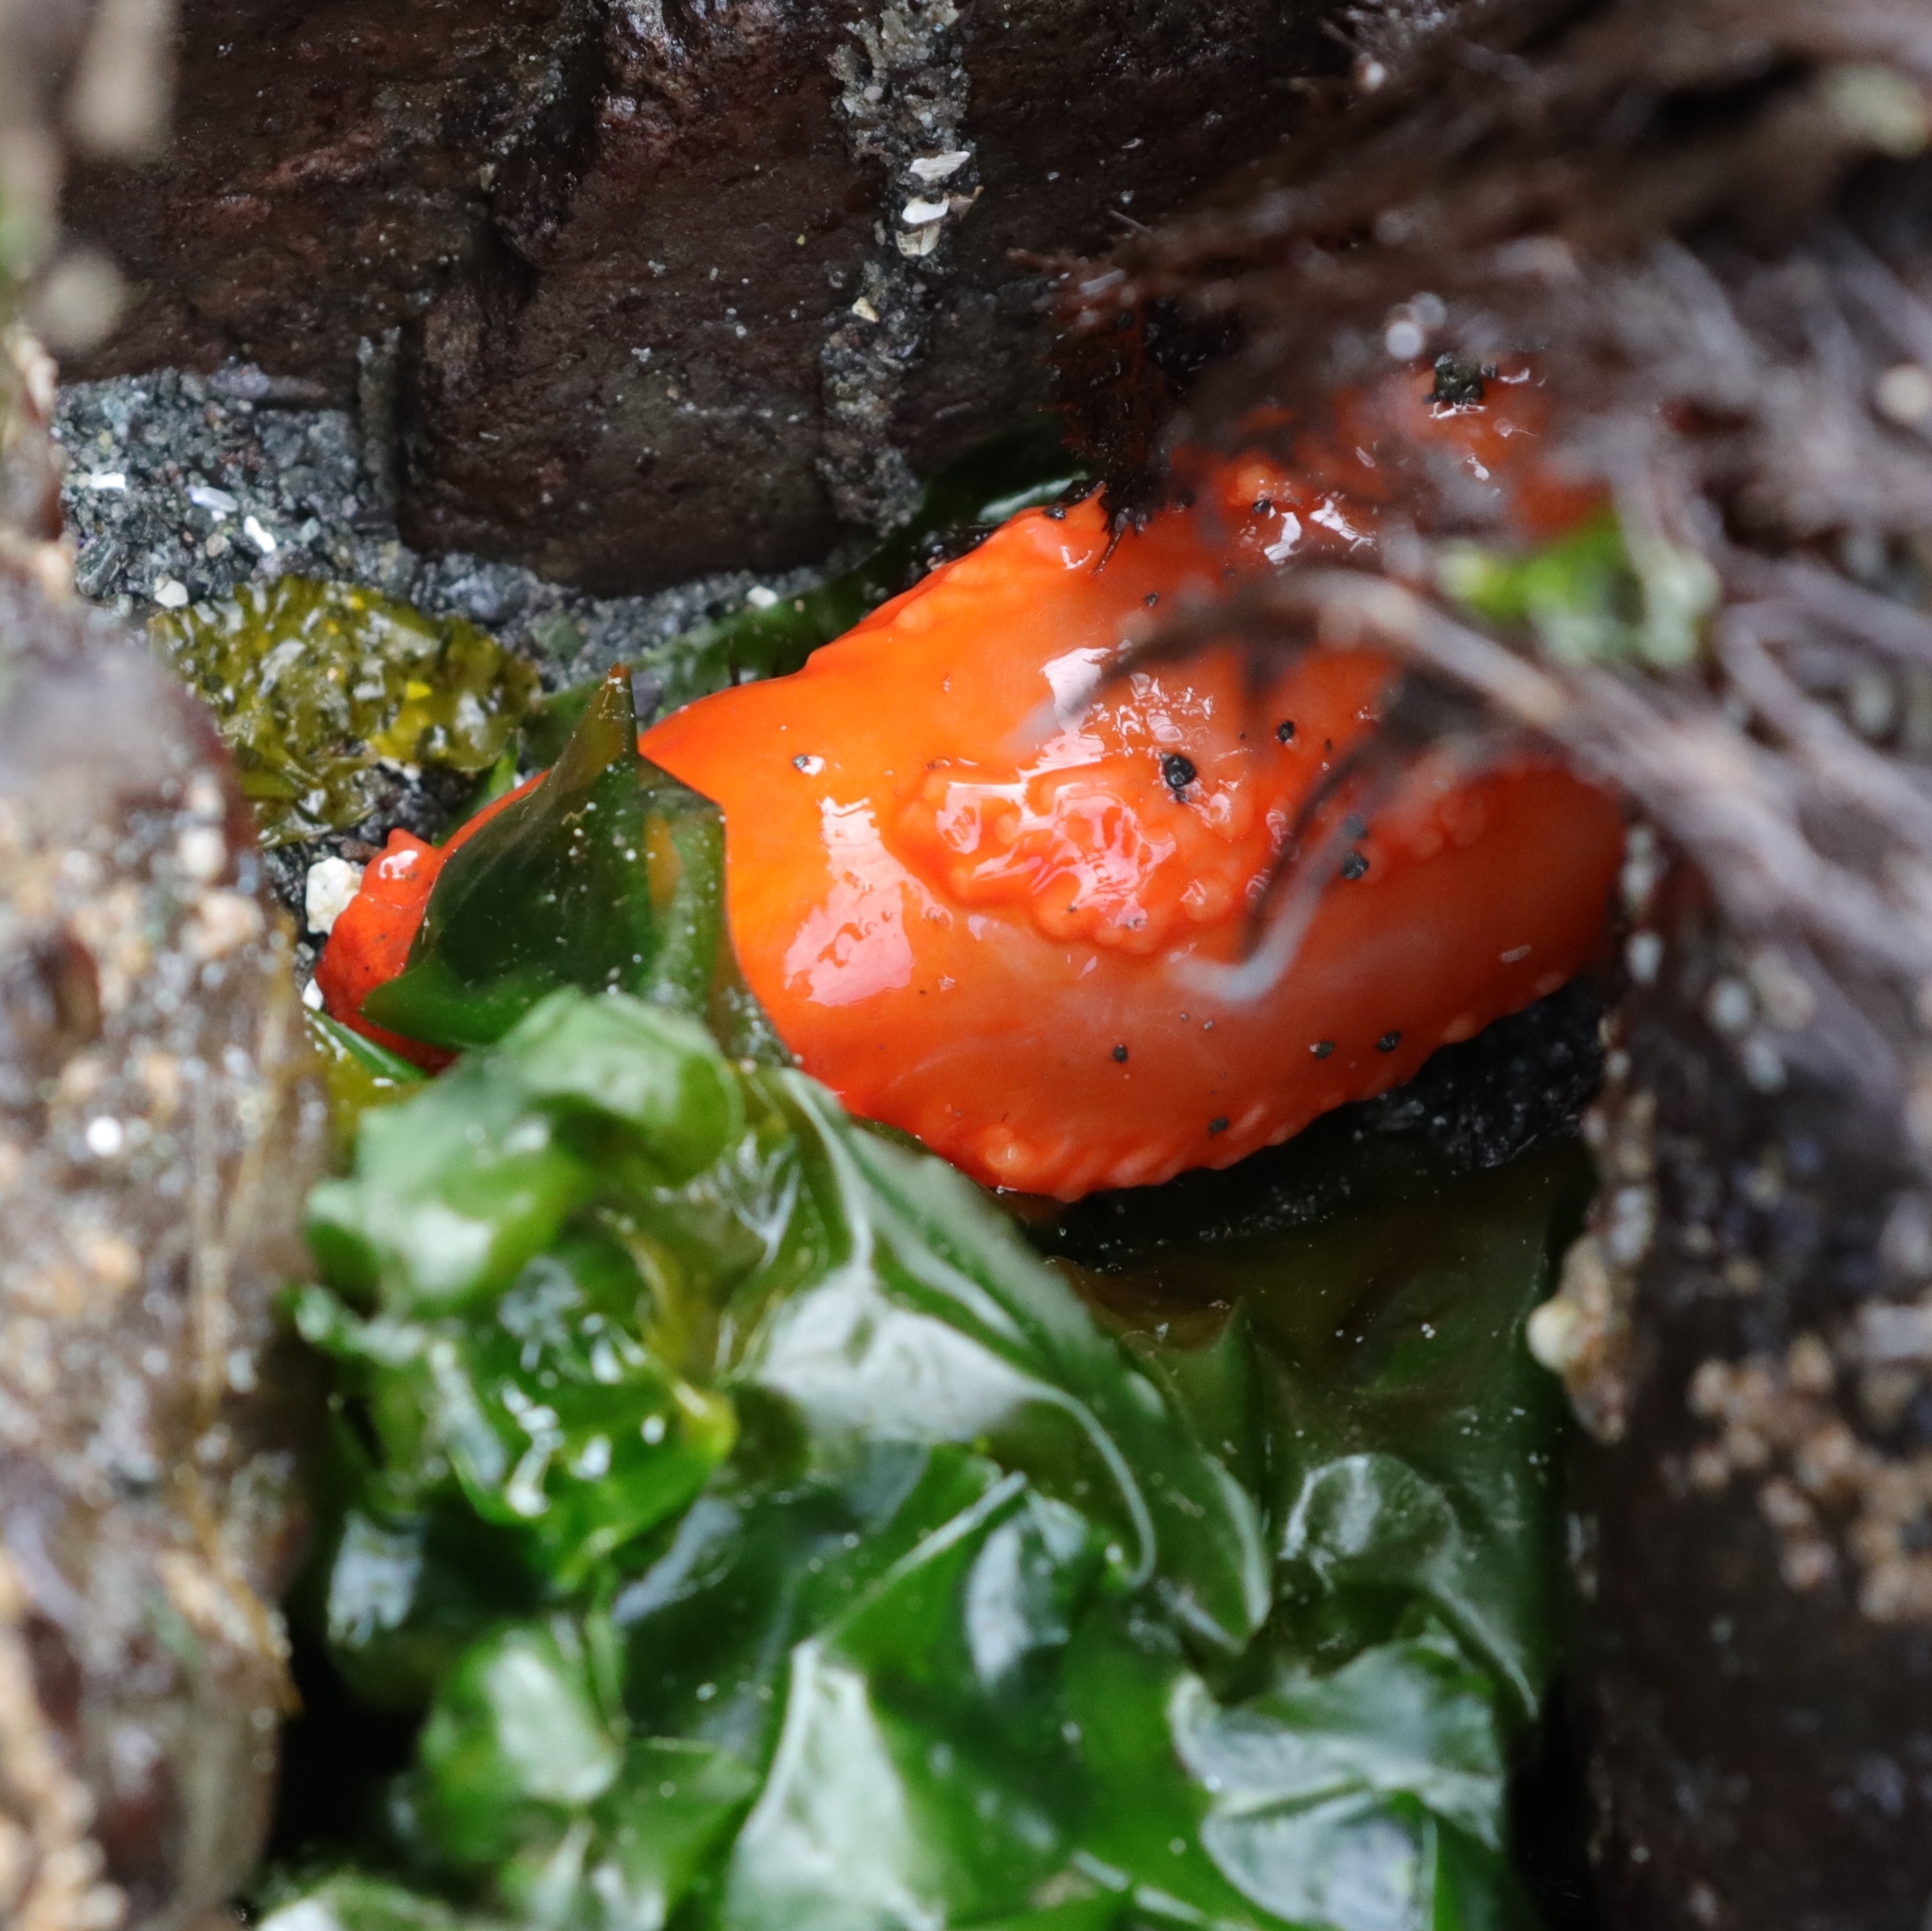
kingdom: Animalia
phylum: Echinodermata
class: Holothuroidea
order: Dendrochirotida
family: Cucumariidae
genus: Cucumaria
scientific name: Cucumaria miniata
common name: Orange sea cucumber
